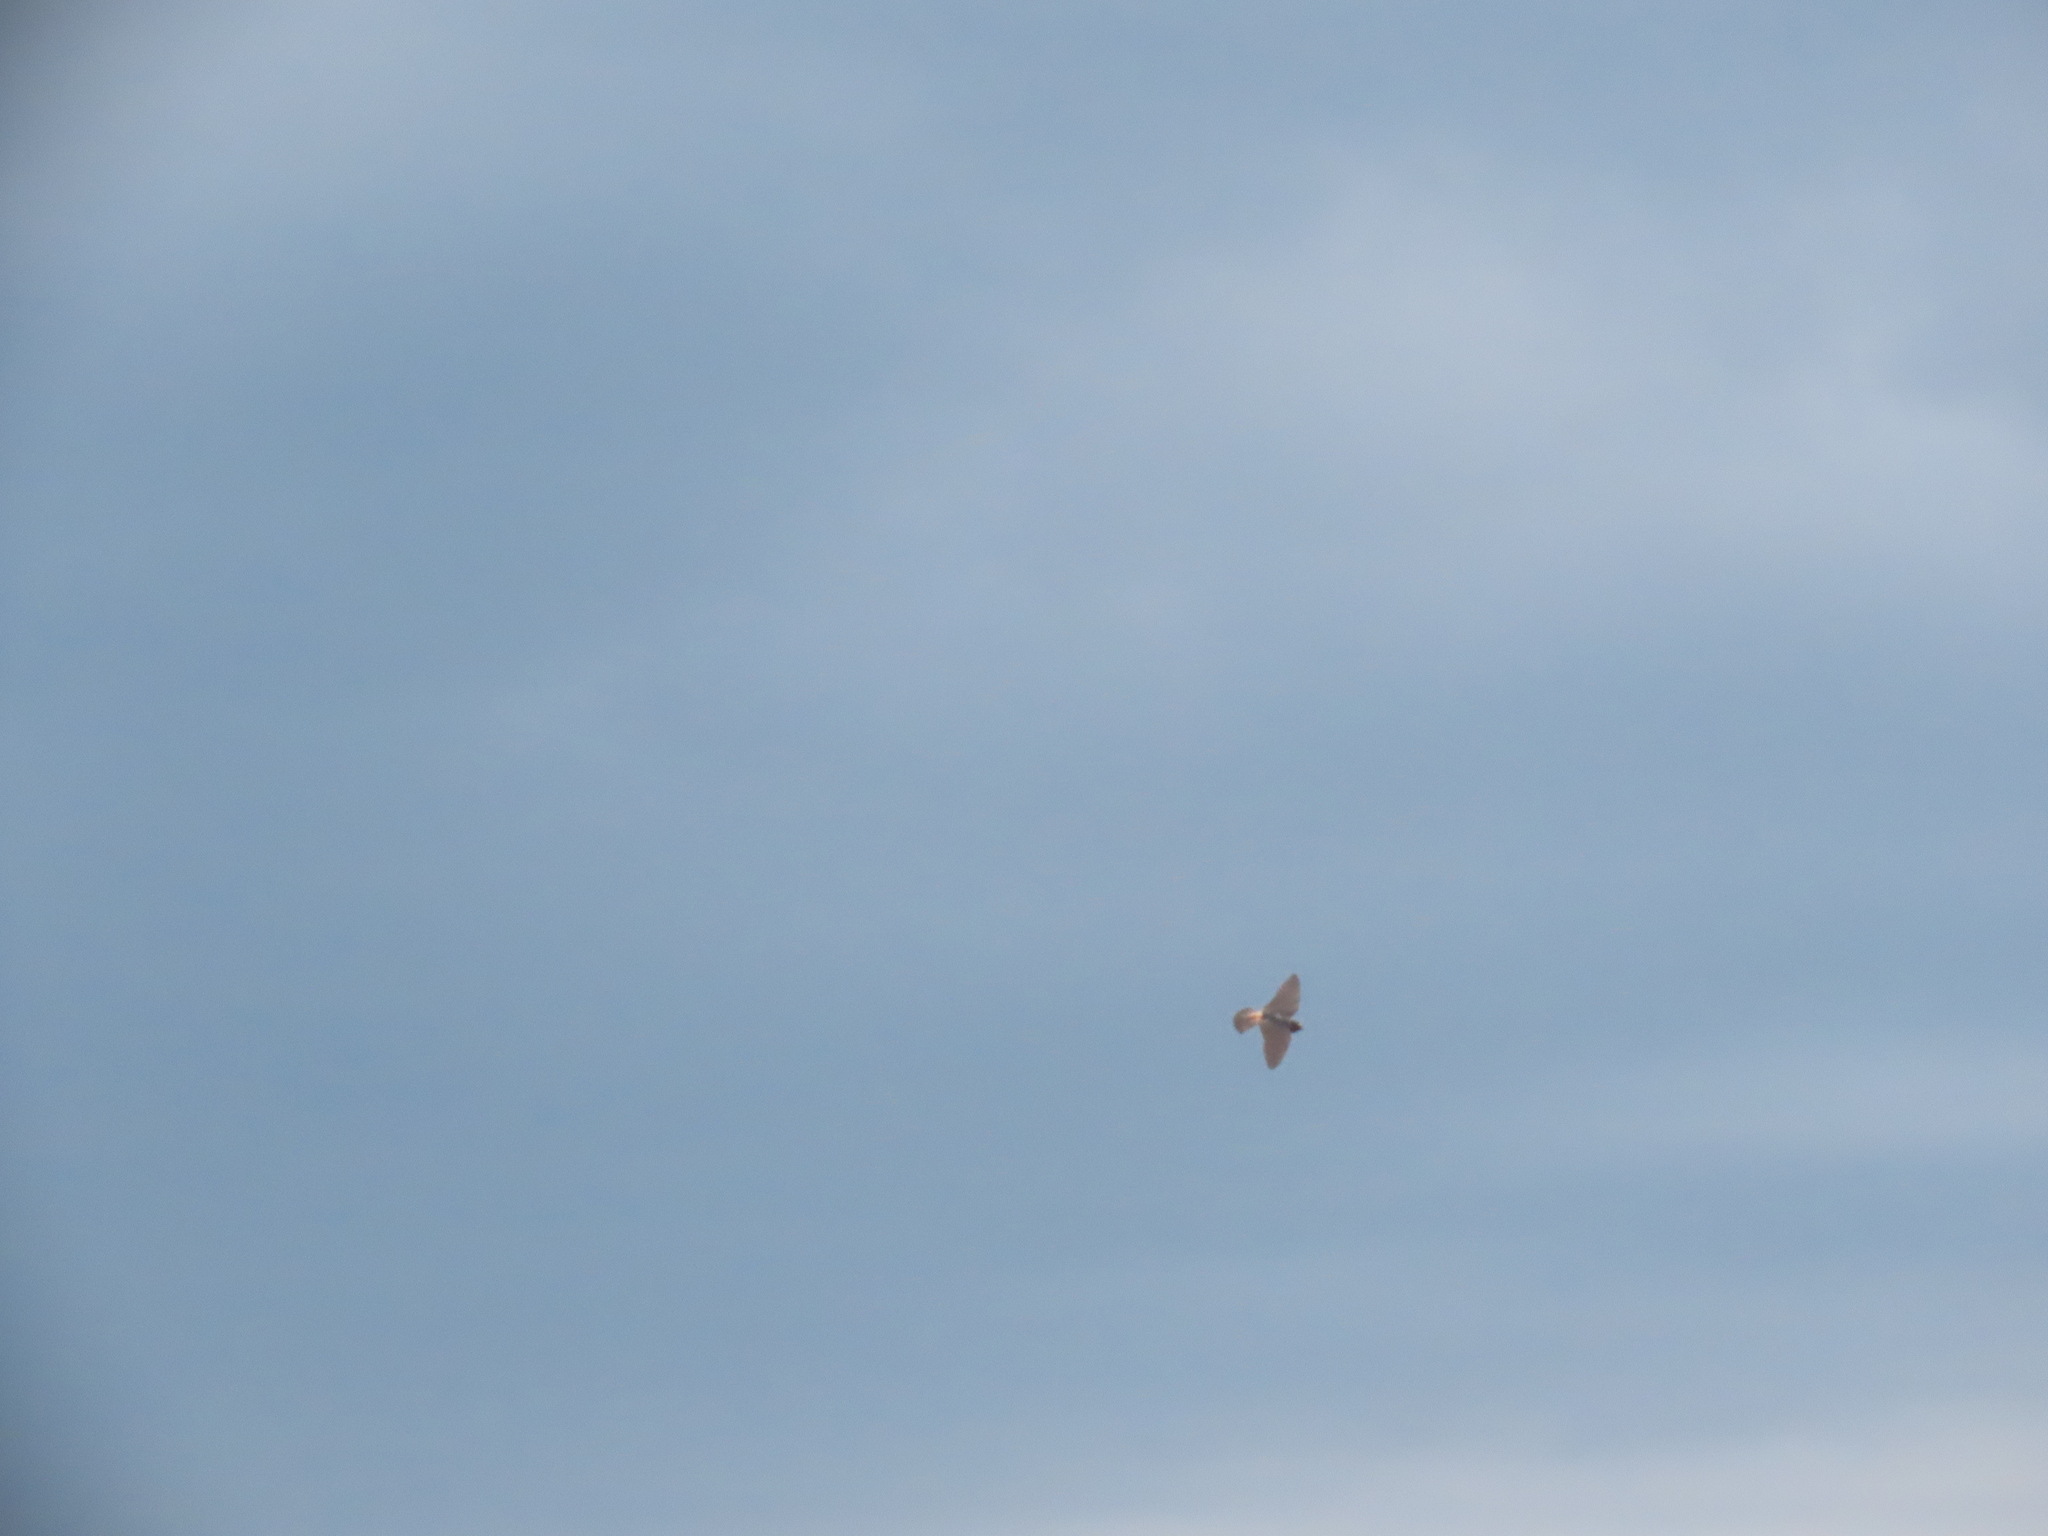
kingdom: Animalia
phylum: Chordata
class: Aves
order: Passeriformes
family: Hirundinidae
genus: Petrochelidon
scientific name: Petrochelidon pyrrhonota
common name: American cliff swallow
